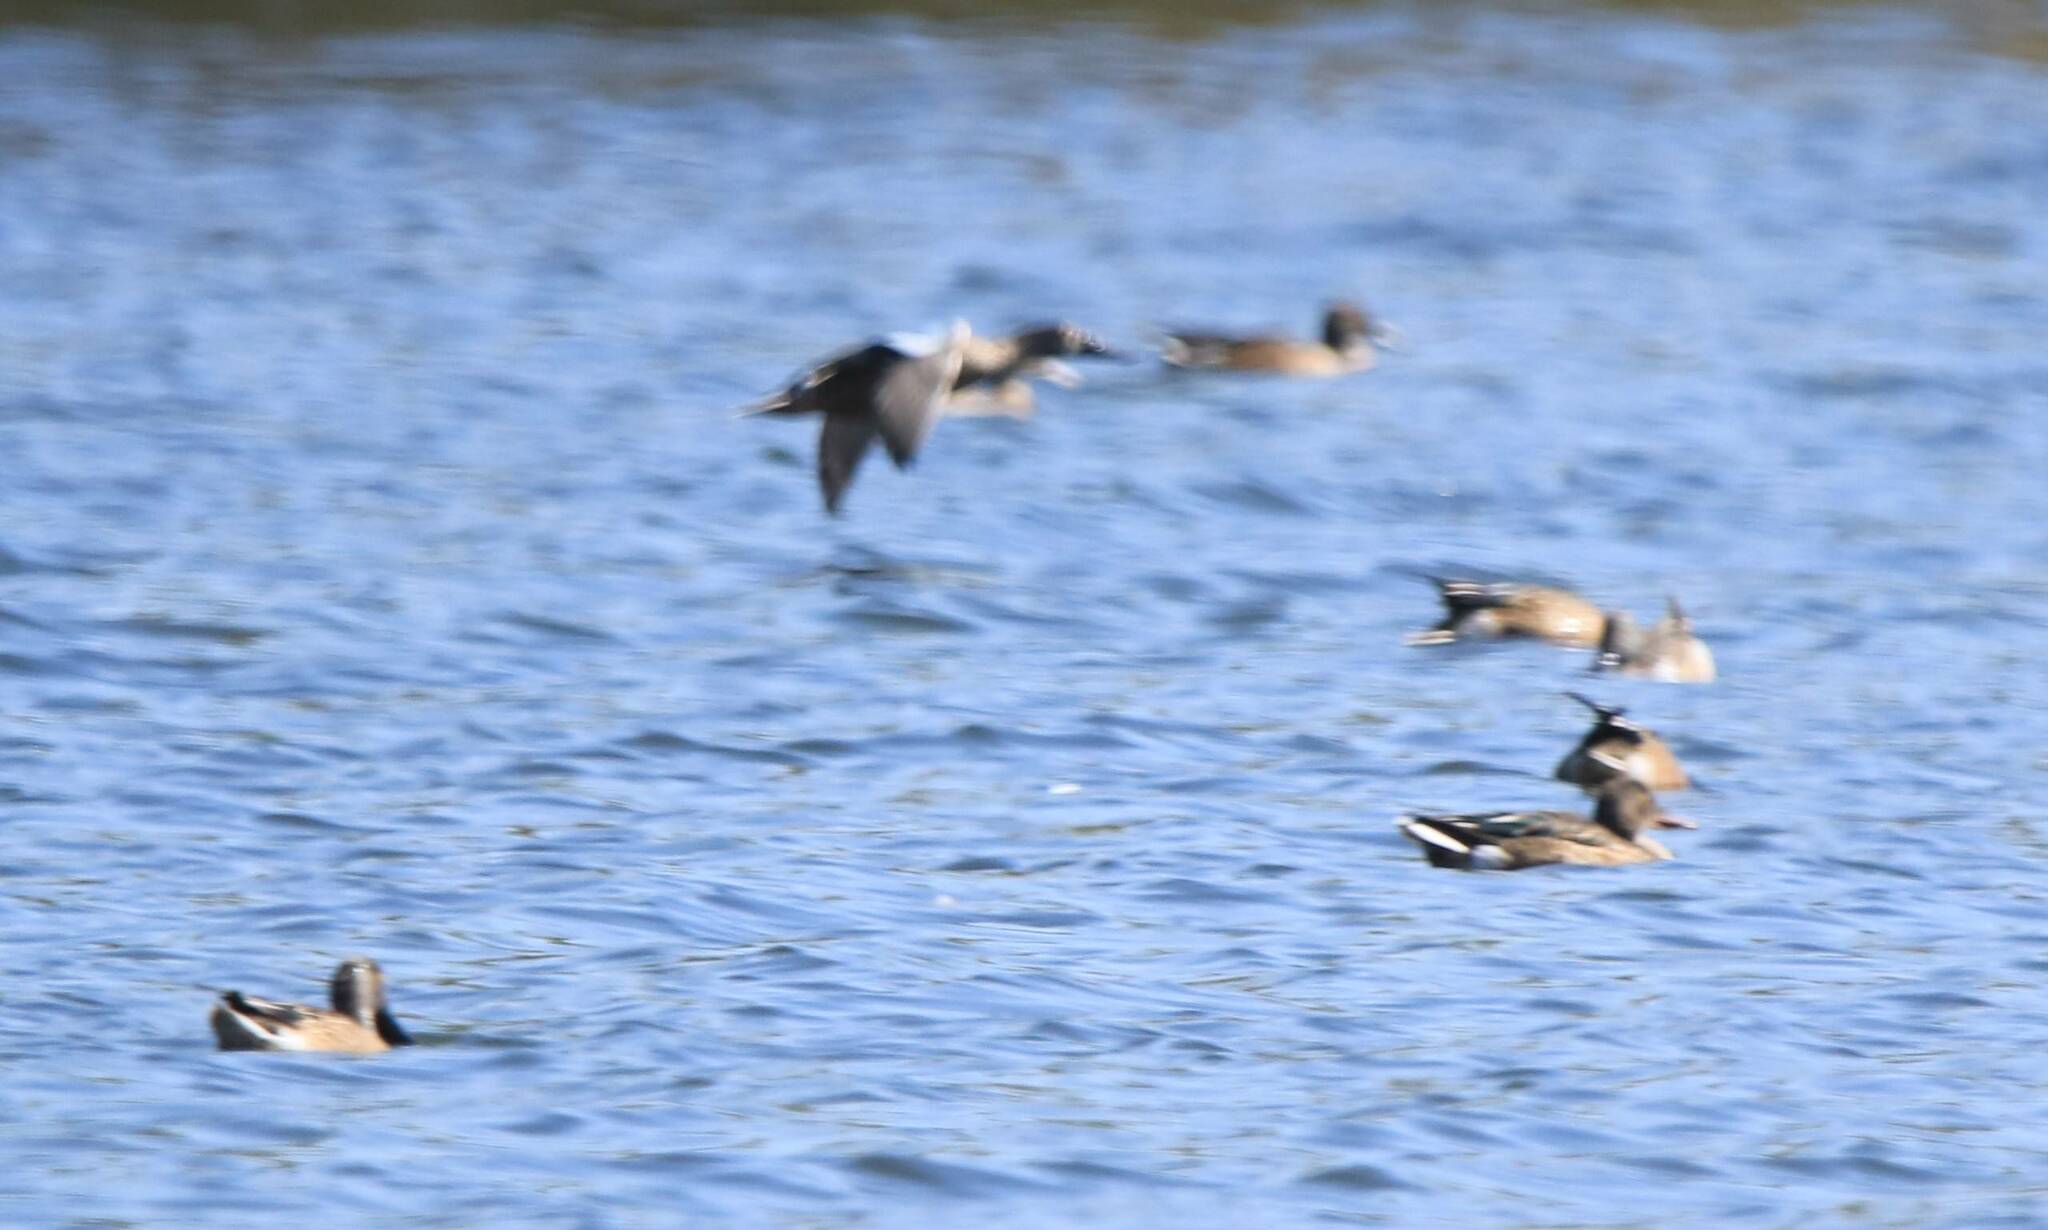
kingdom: Animalia
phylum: Chordata
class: Aves
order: Anseriformes
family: Anatidae
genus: Spatula
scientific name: Spatula clypeata
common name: Northern shoveler
